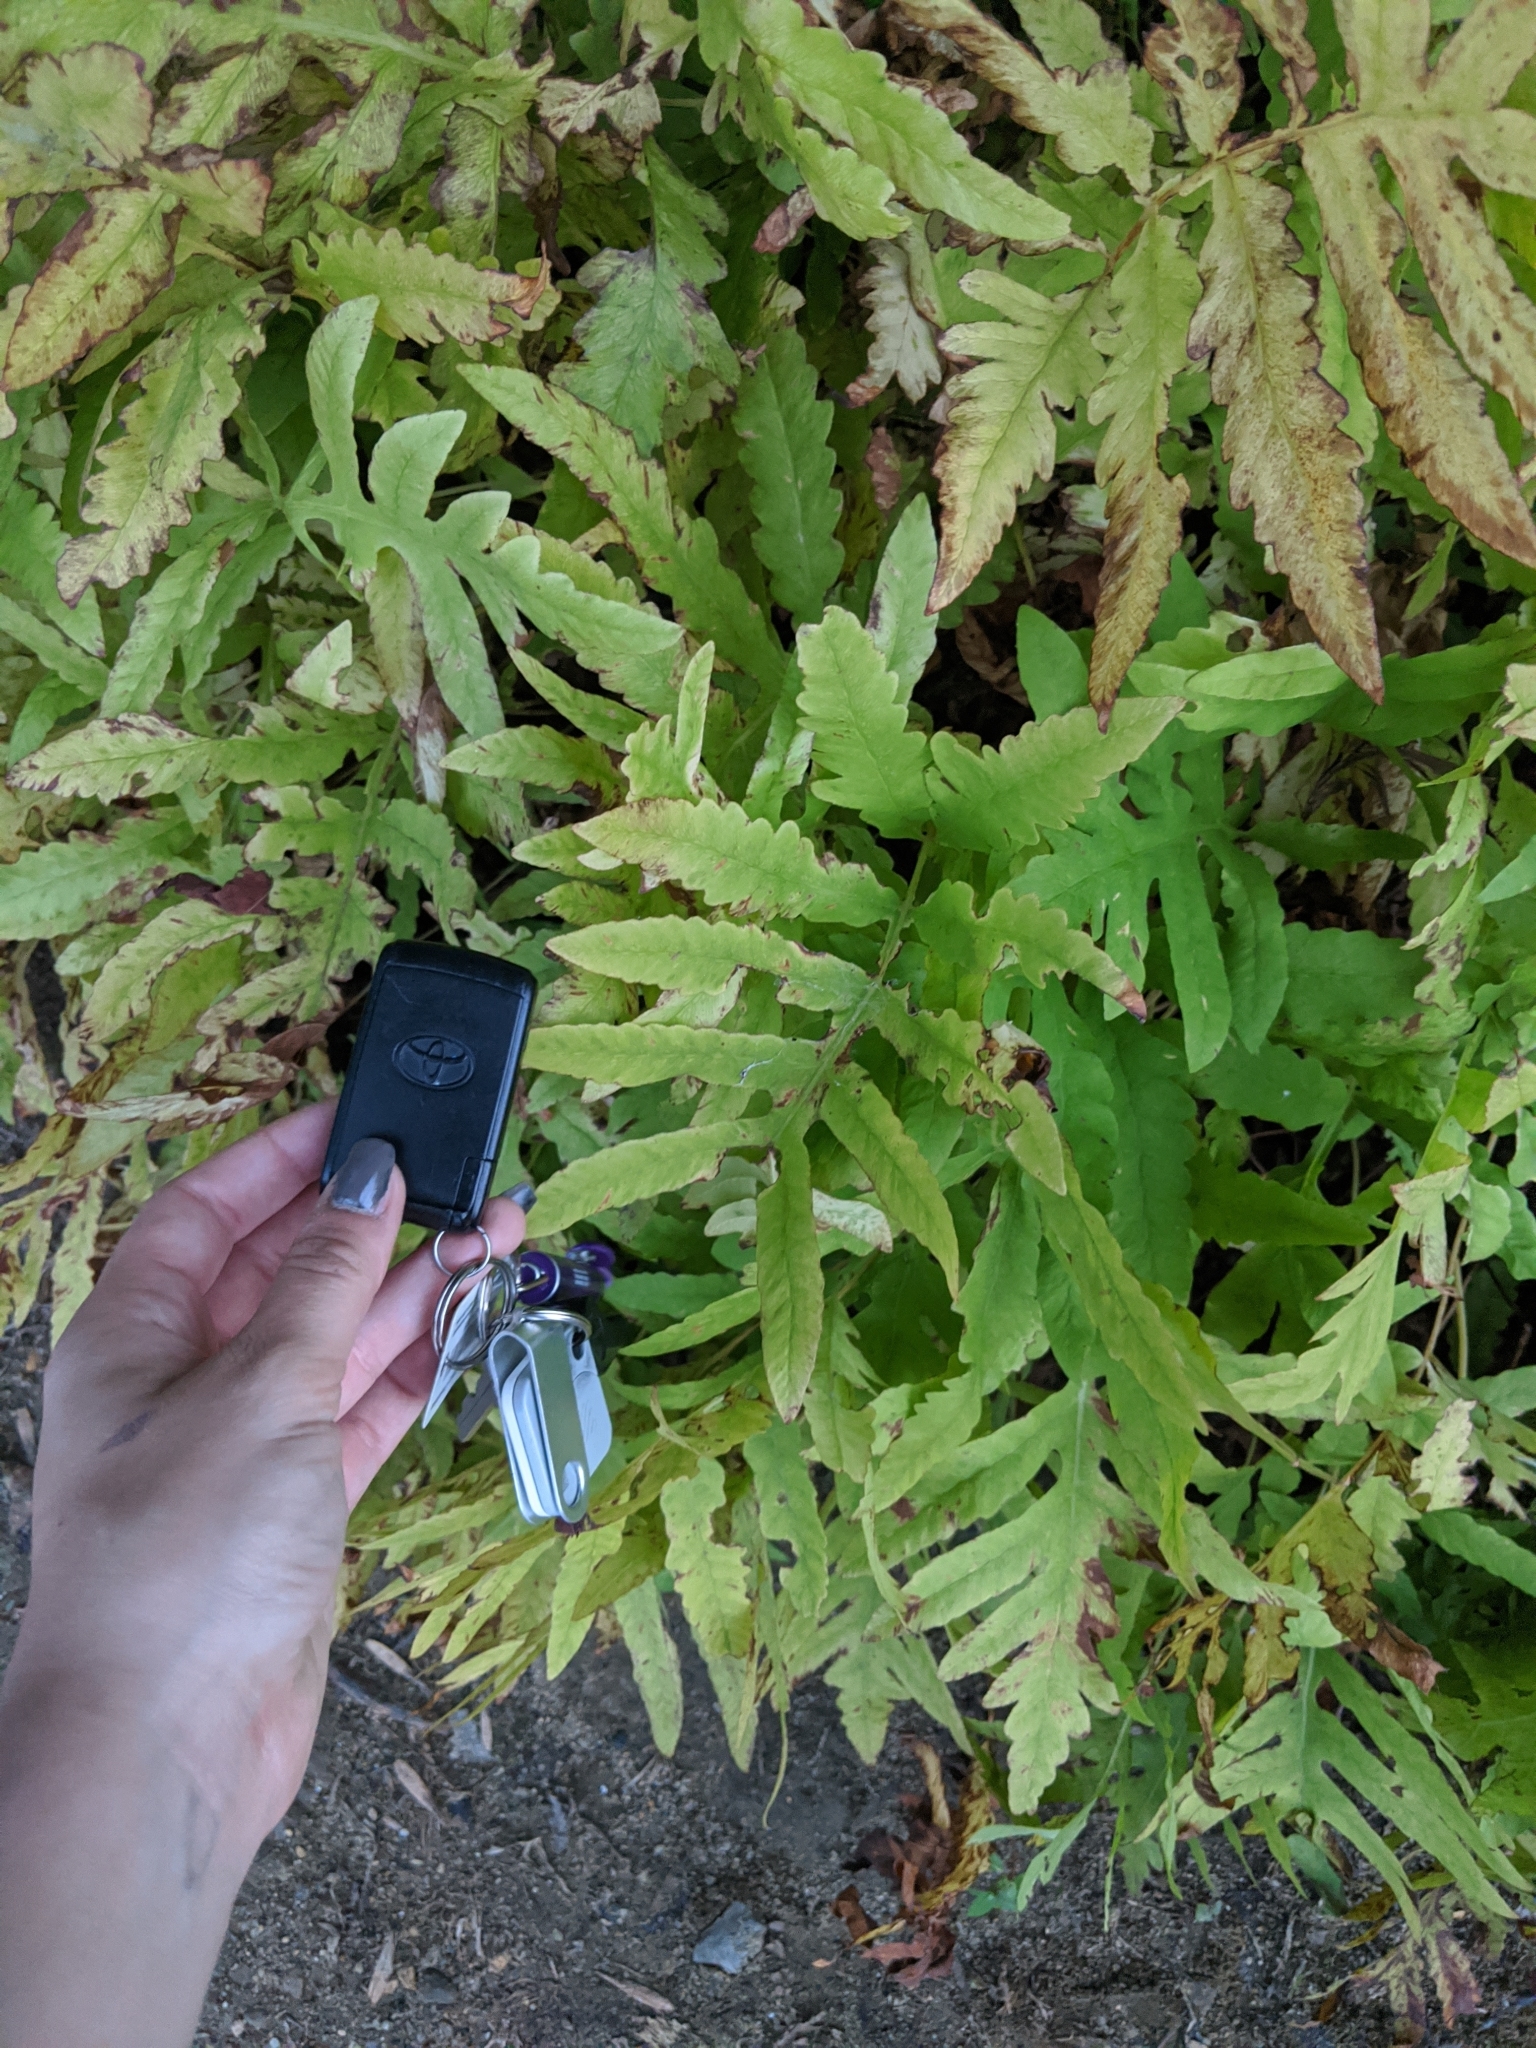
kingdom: Plantae
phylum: Tracheophyta
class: Polypodiopsida
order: Polypodiales
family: Onocleaceae
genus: Onoclea
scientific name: Onoclea sensibilis
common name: Sensitive fern
